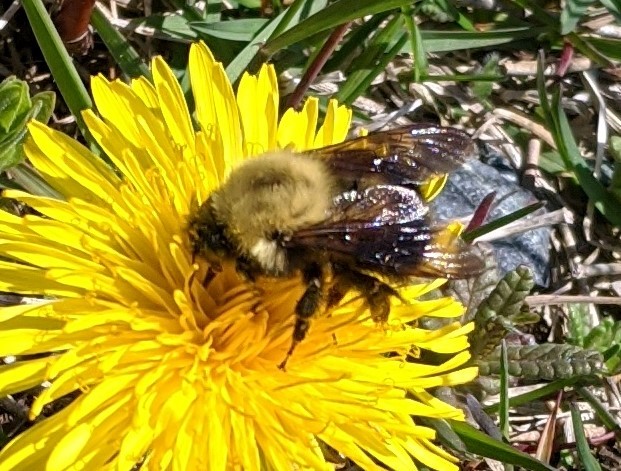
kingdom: Animalia
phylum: Arthropoda
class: Insecta
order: Hymenoptera
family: Apidae
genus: Bombus
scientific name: Bombus perplexus
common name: Confusing bumble bee
